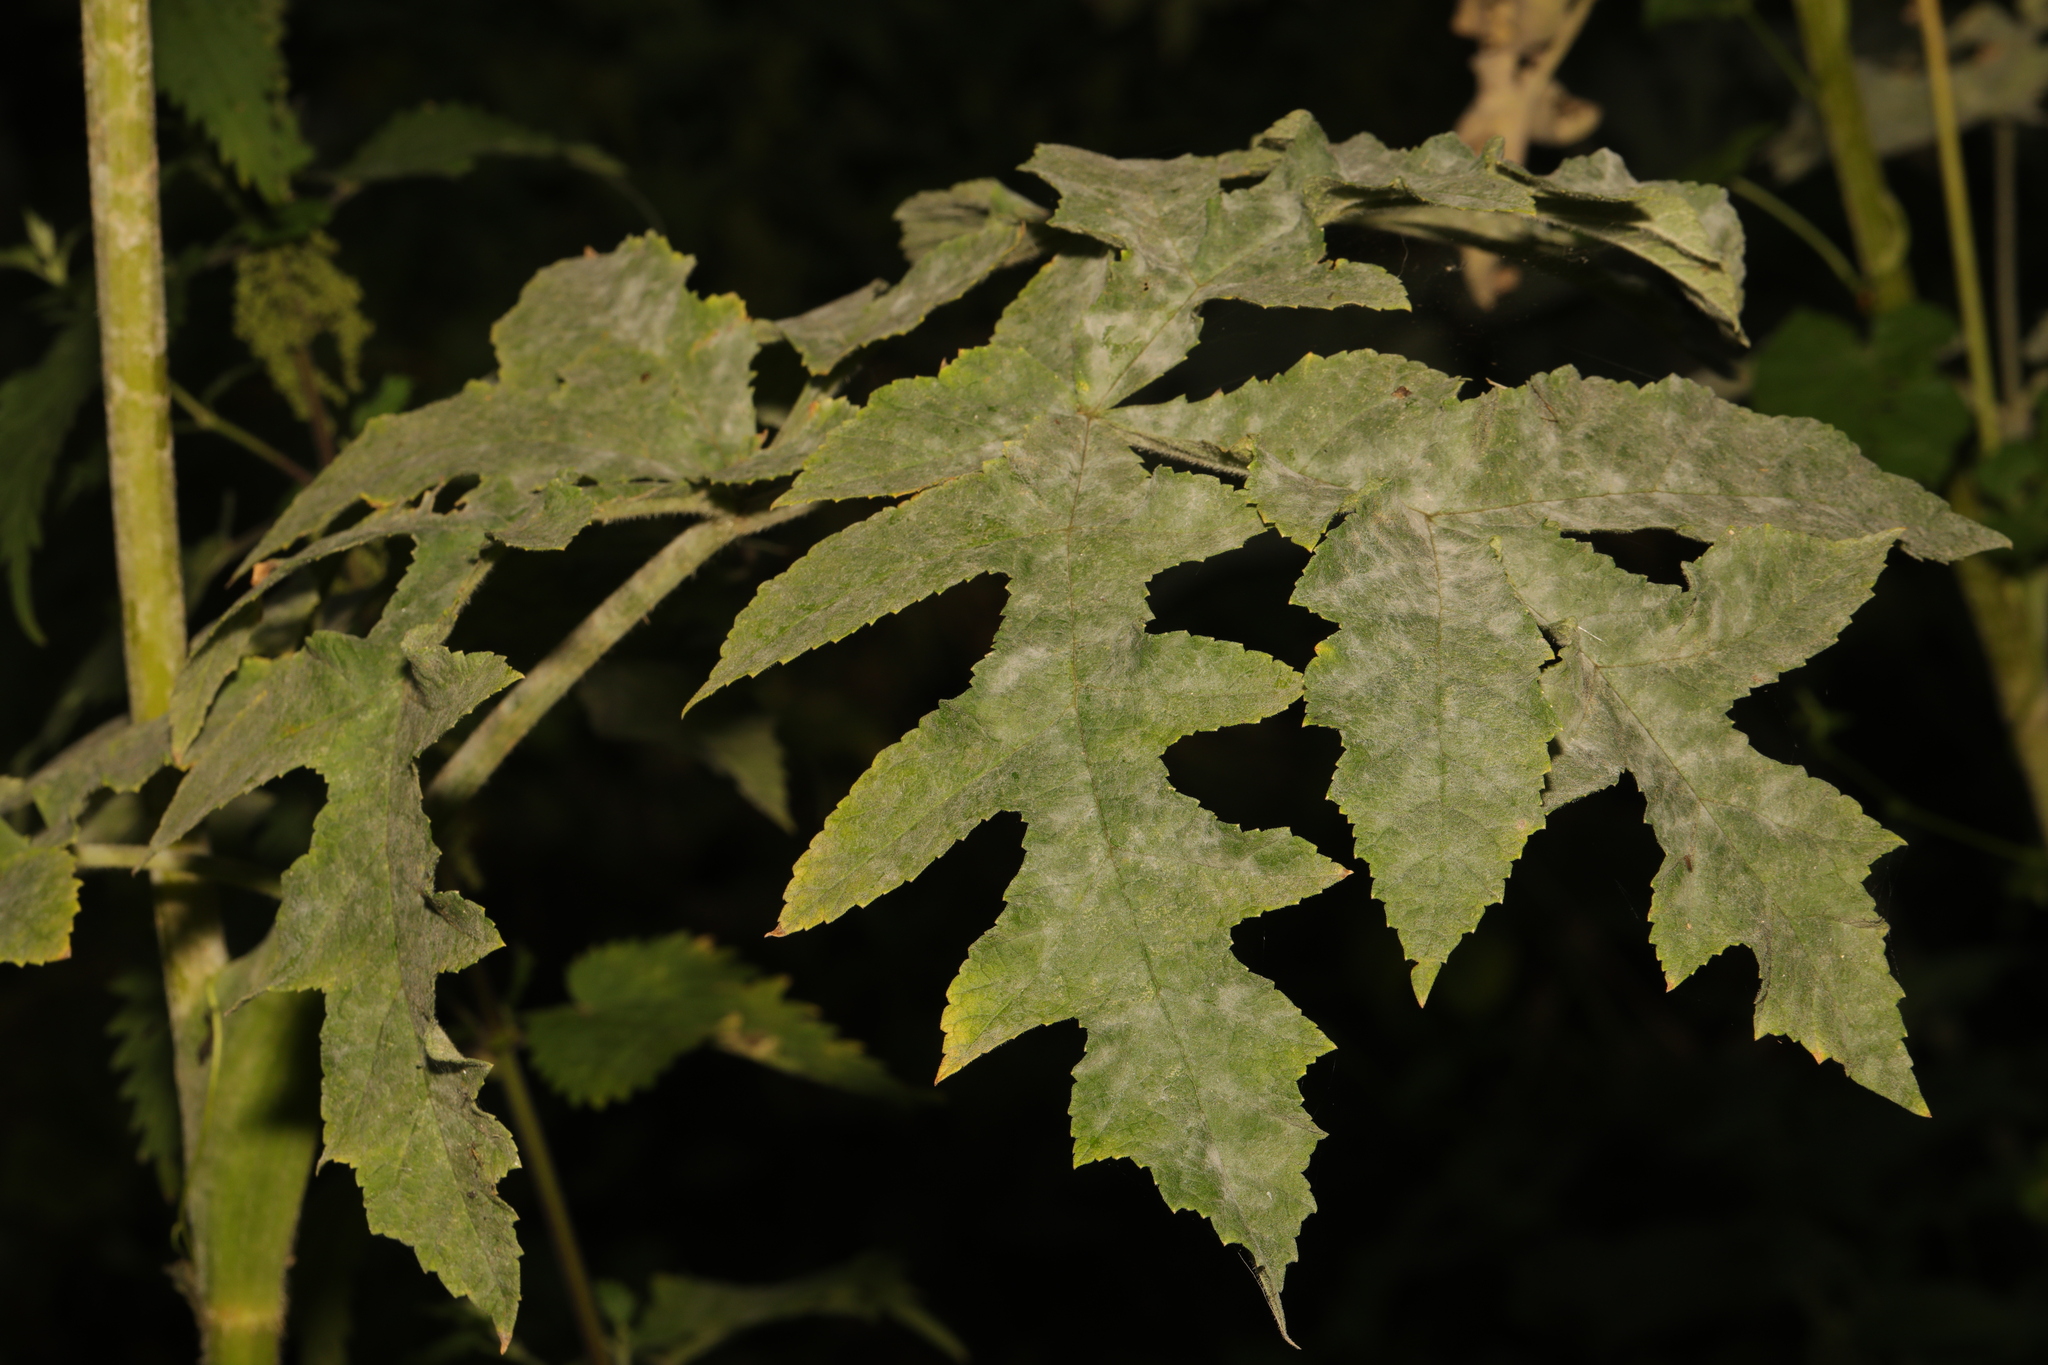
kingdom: Plantae
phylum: Tracheophyta
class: Magnoliopsida
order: Apiales
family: Apiaceae
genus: Heracleum
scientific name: Heracleum sphondylium
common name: Hogweed
